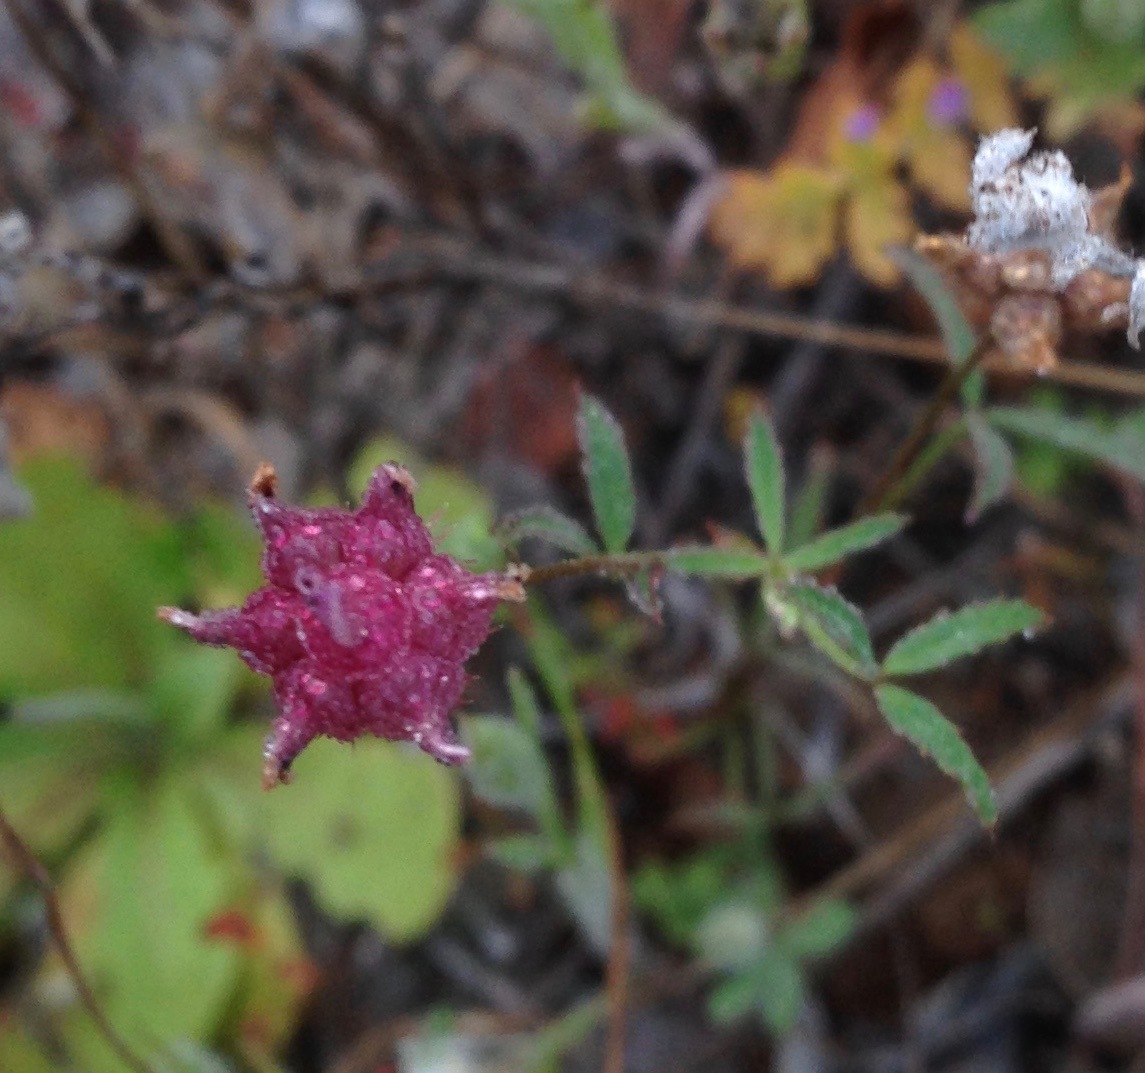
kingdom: Plantae
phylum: Tracheophyta
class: Magnoliopsida
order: Fabales
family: Fabaceae
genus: Trifolium
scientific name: Trifolium depauperatum
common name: Poverty clover
